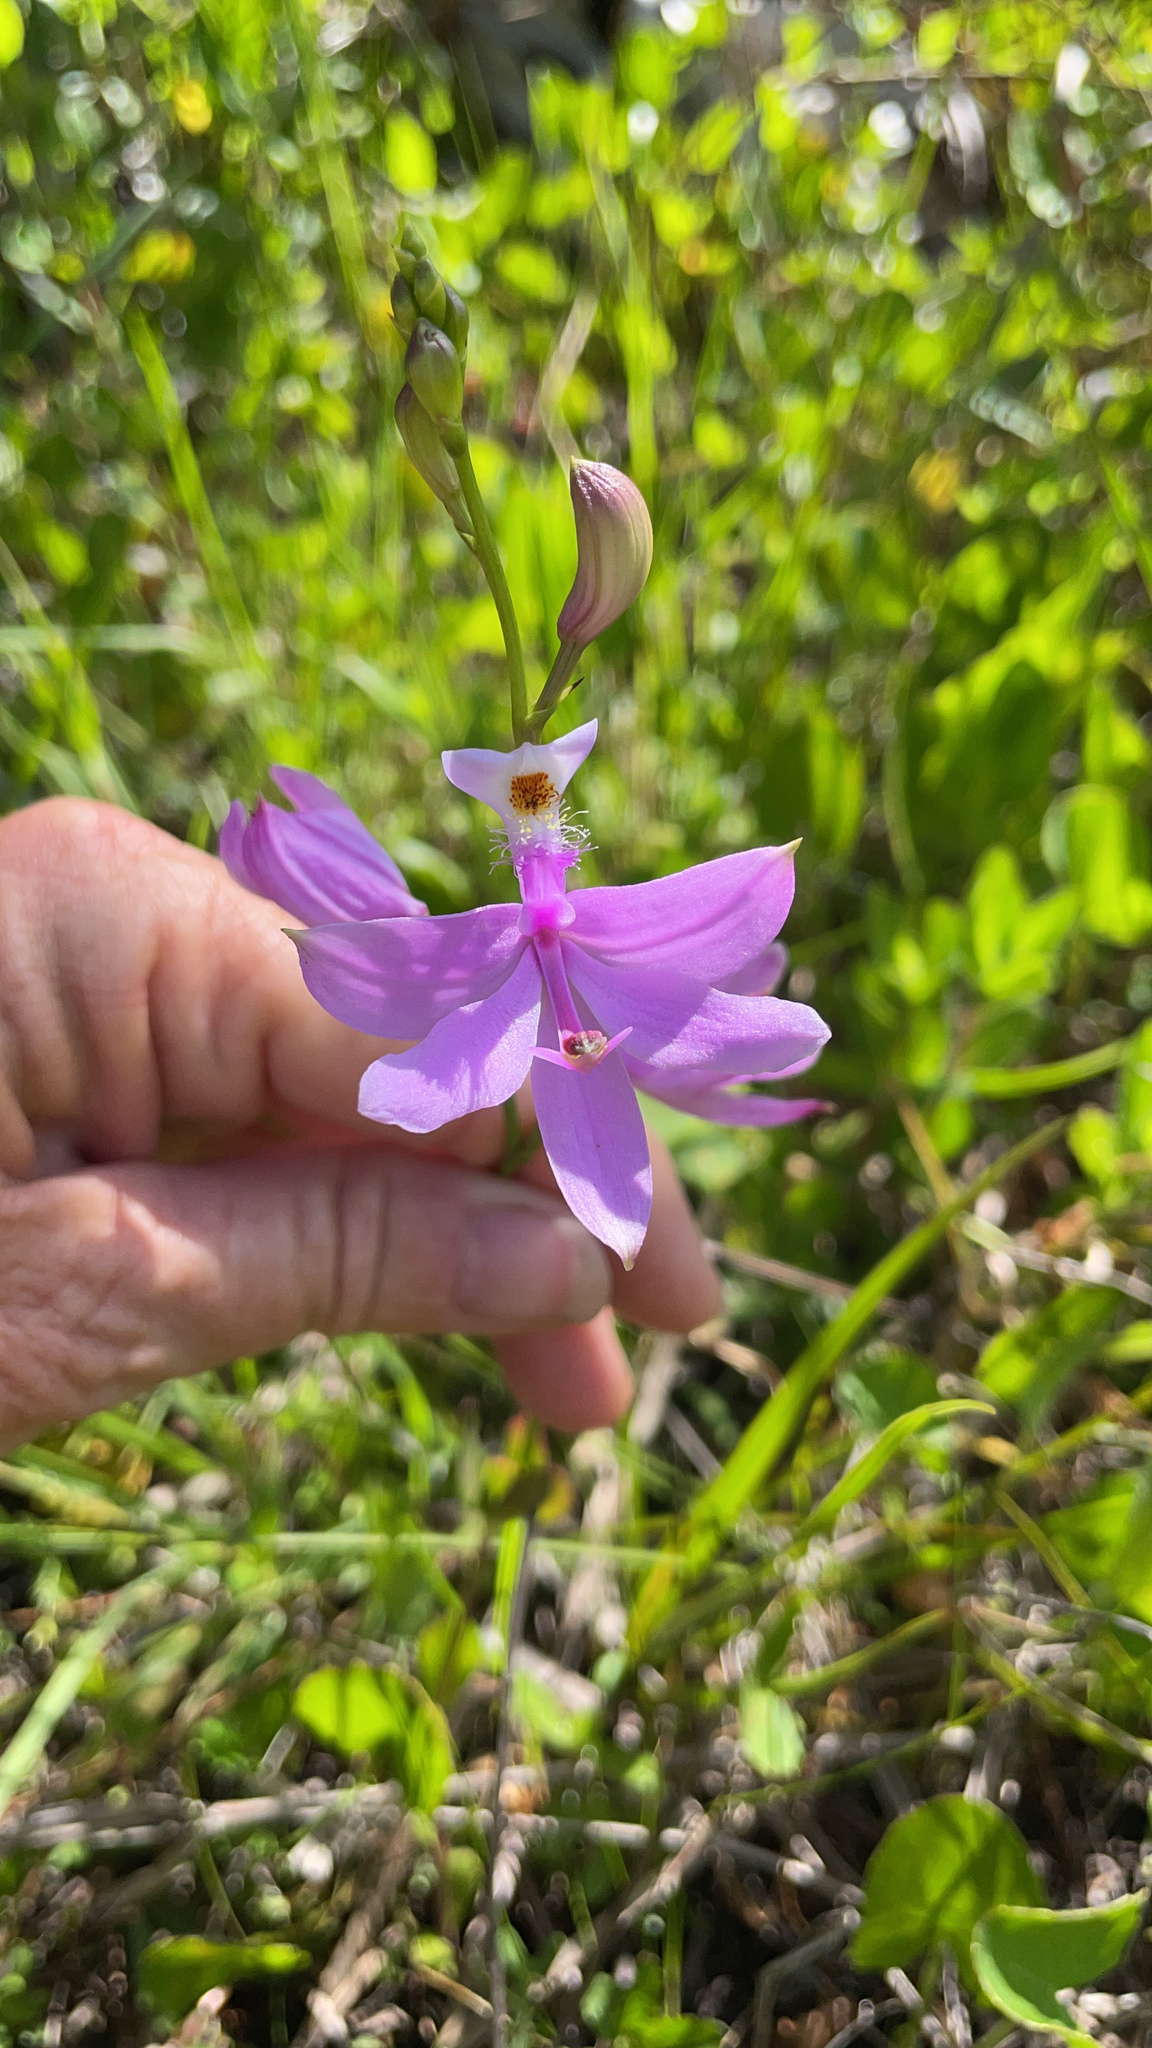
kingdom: Plantae
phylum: Tracheophyta
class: Liliopsida
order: Asparagales
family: Orchidaceae
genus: Calopogon
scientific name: Calopogon tuberosus
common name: Grass-pink
